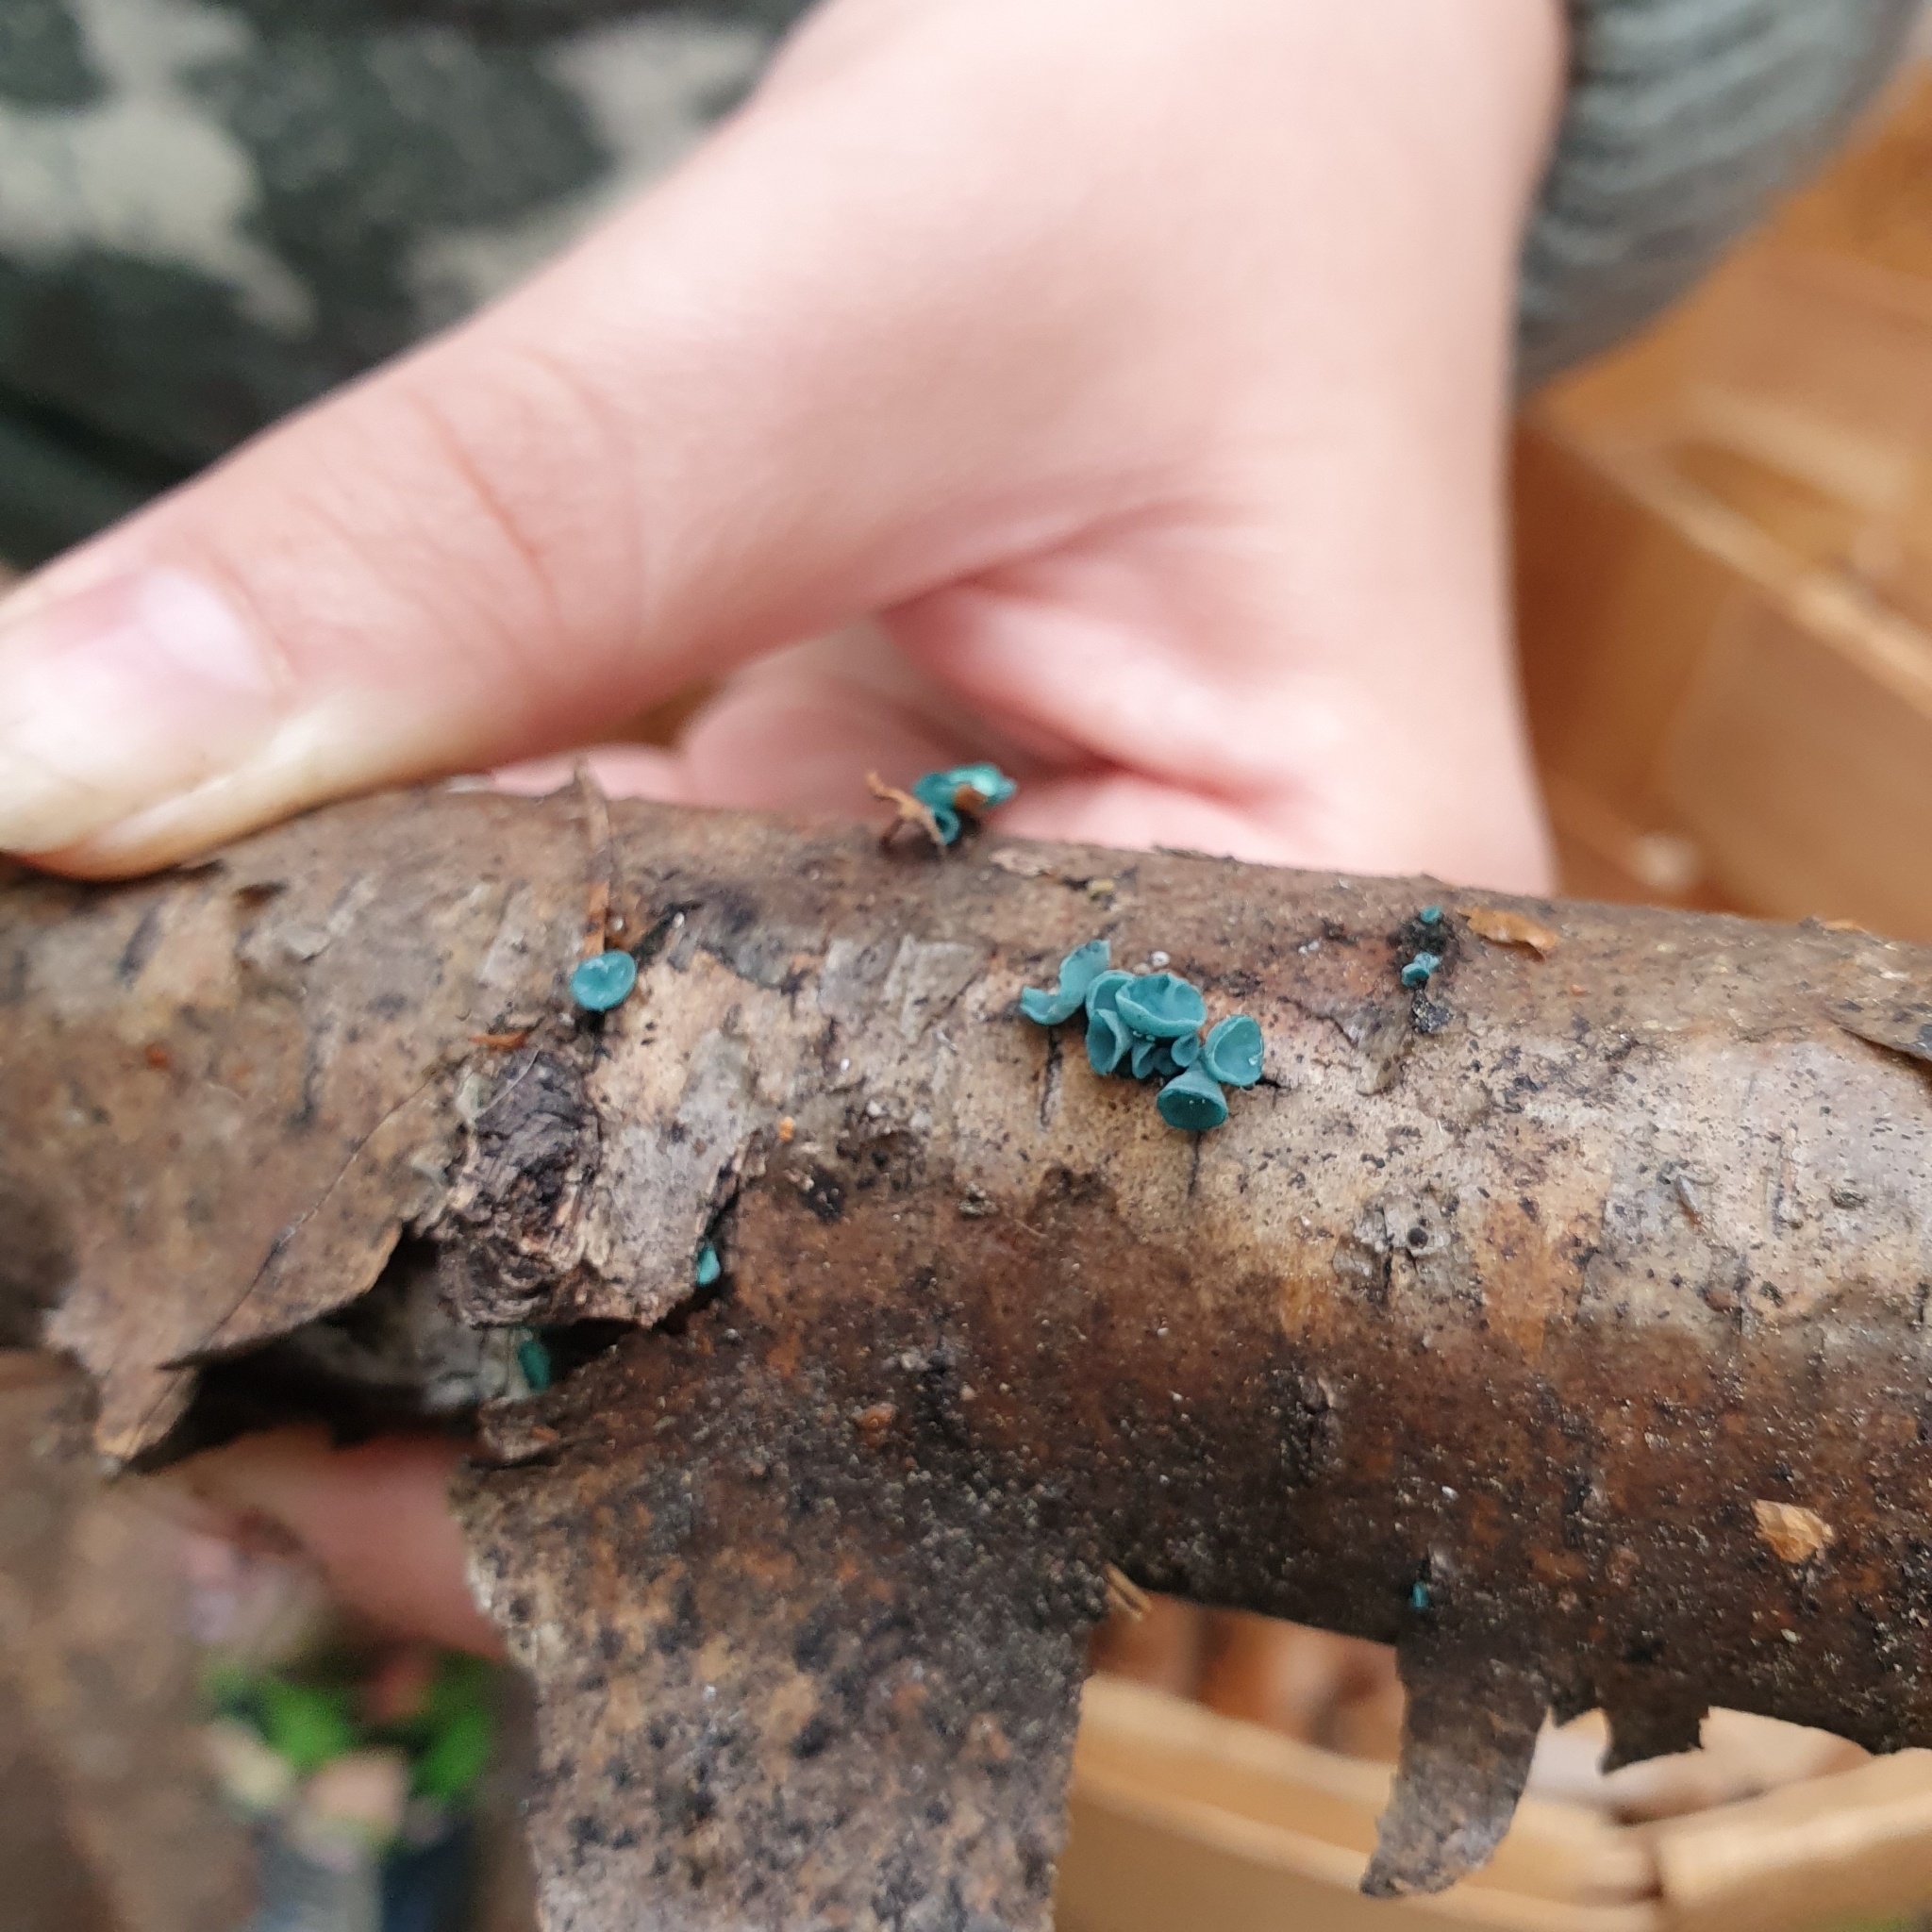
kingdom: Fungi
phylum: Ascomycota
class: Leotiomycetes
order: Helotiales
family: Chlorociboriaceae
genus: Chlorociboria
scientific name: Chlorociboria aeruginascens
